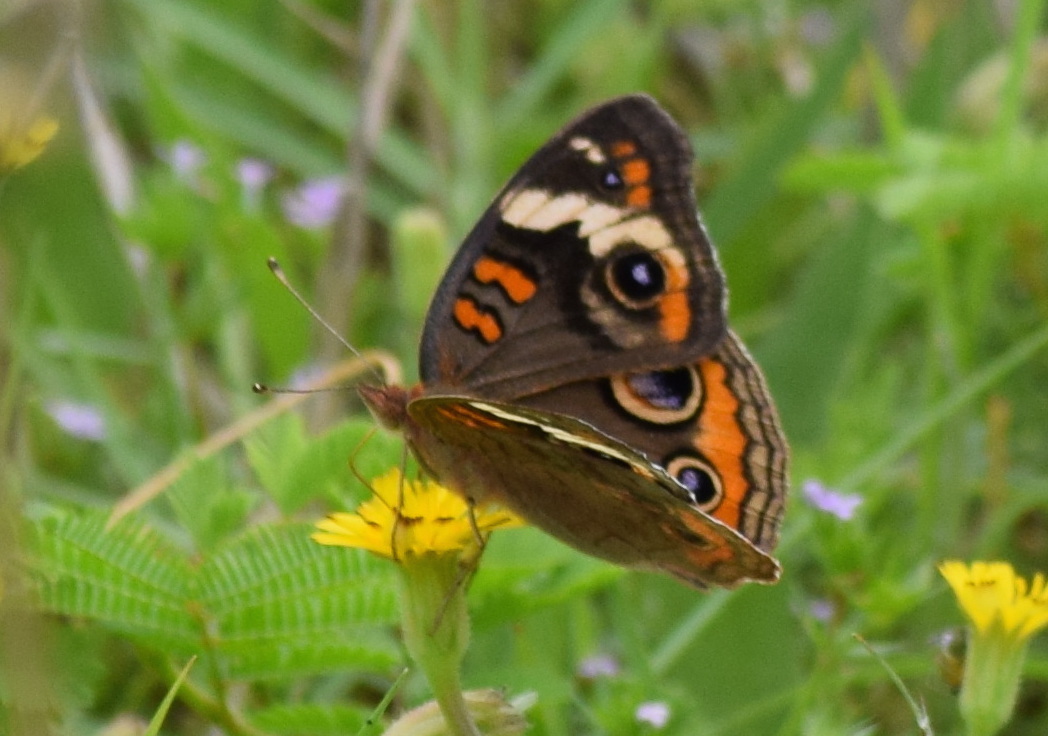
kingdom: Animalia
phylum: Arthropoda
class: Insecta
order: Lepidoptera
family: Nymphalidae
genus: Junonia
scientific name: Junonia coenia
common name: Common buckeye
